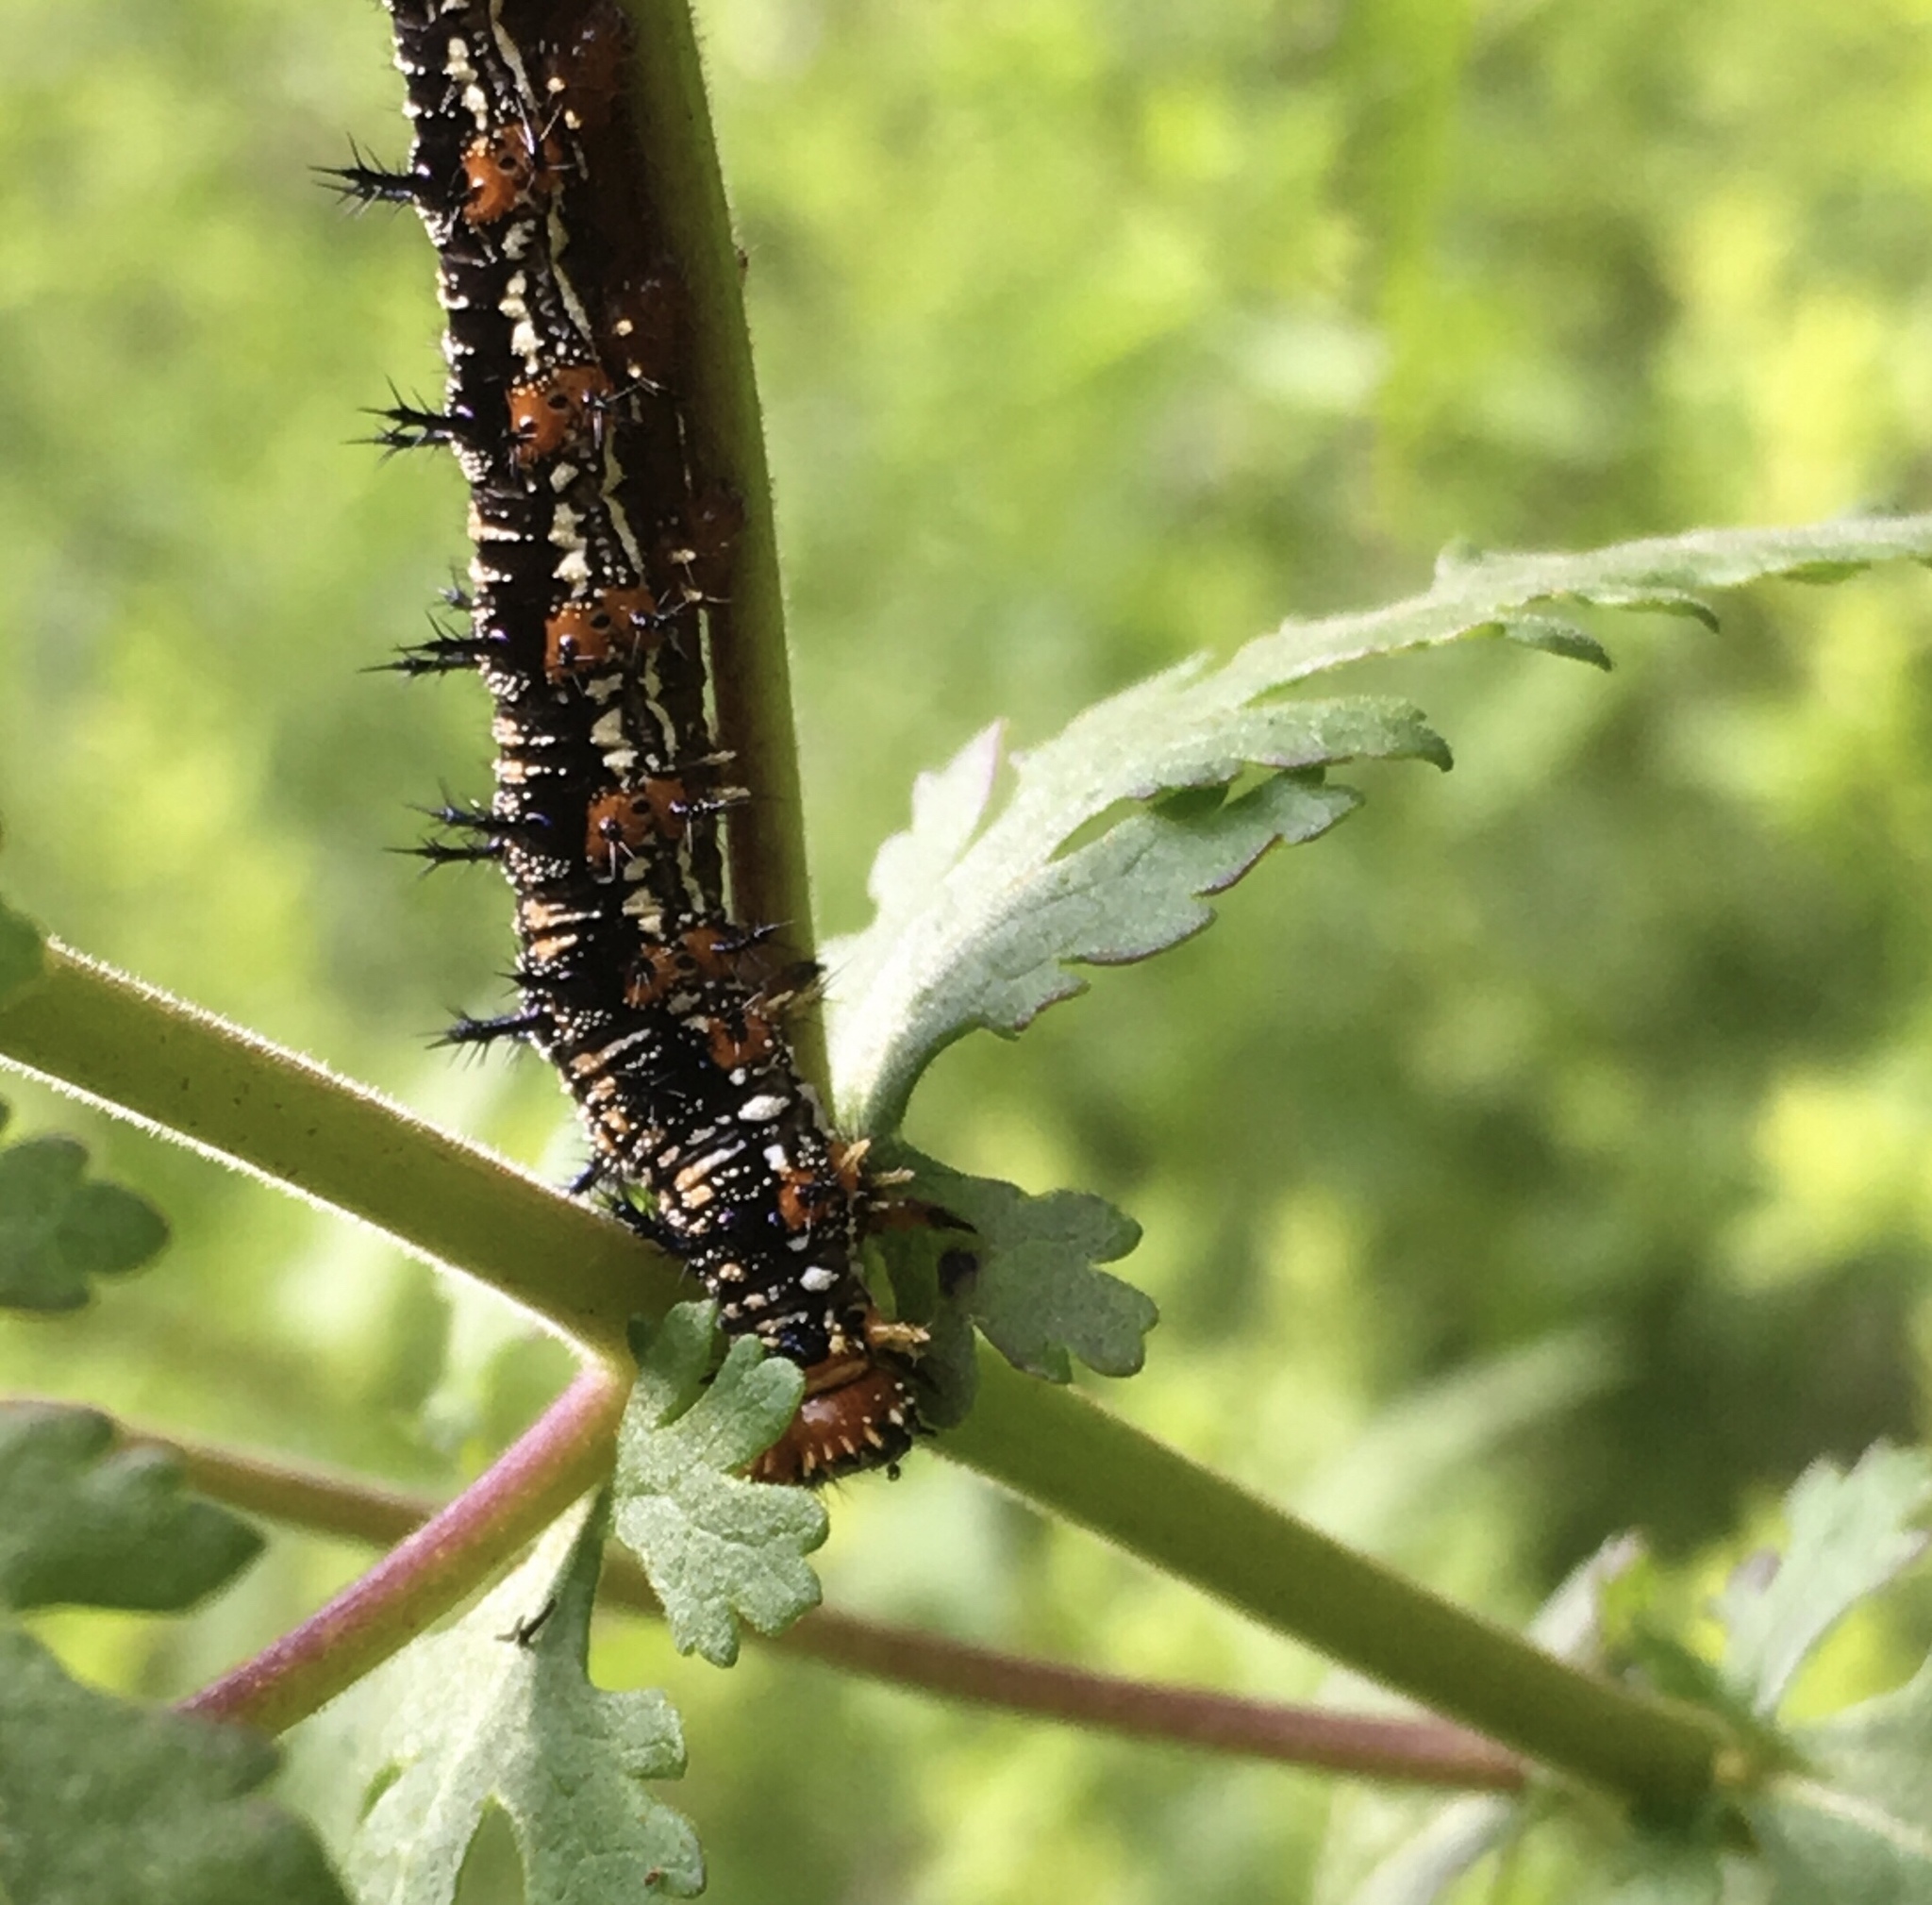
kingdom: Animalia
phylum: Arthropoda
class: Insecta
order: Lepidoptera
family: Nymphalidae
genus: Junonia
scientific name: Junonia coenia
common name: Common buckeye
